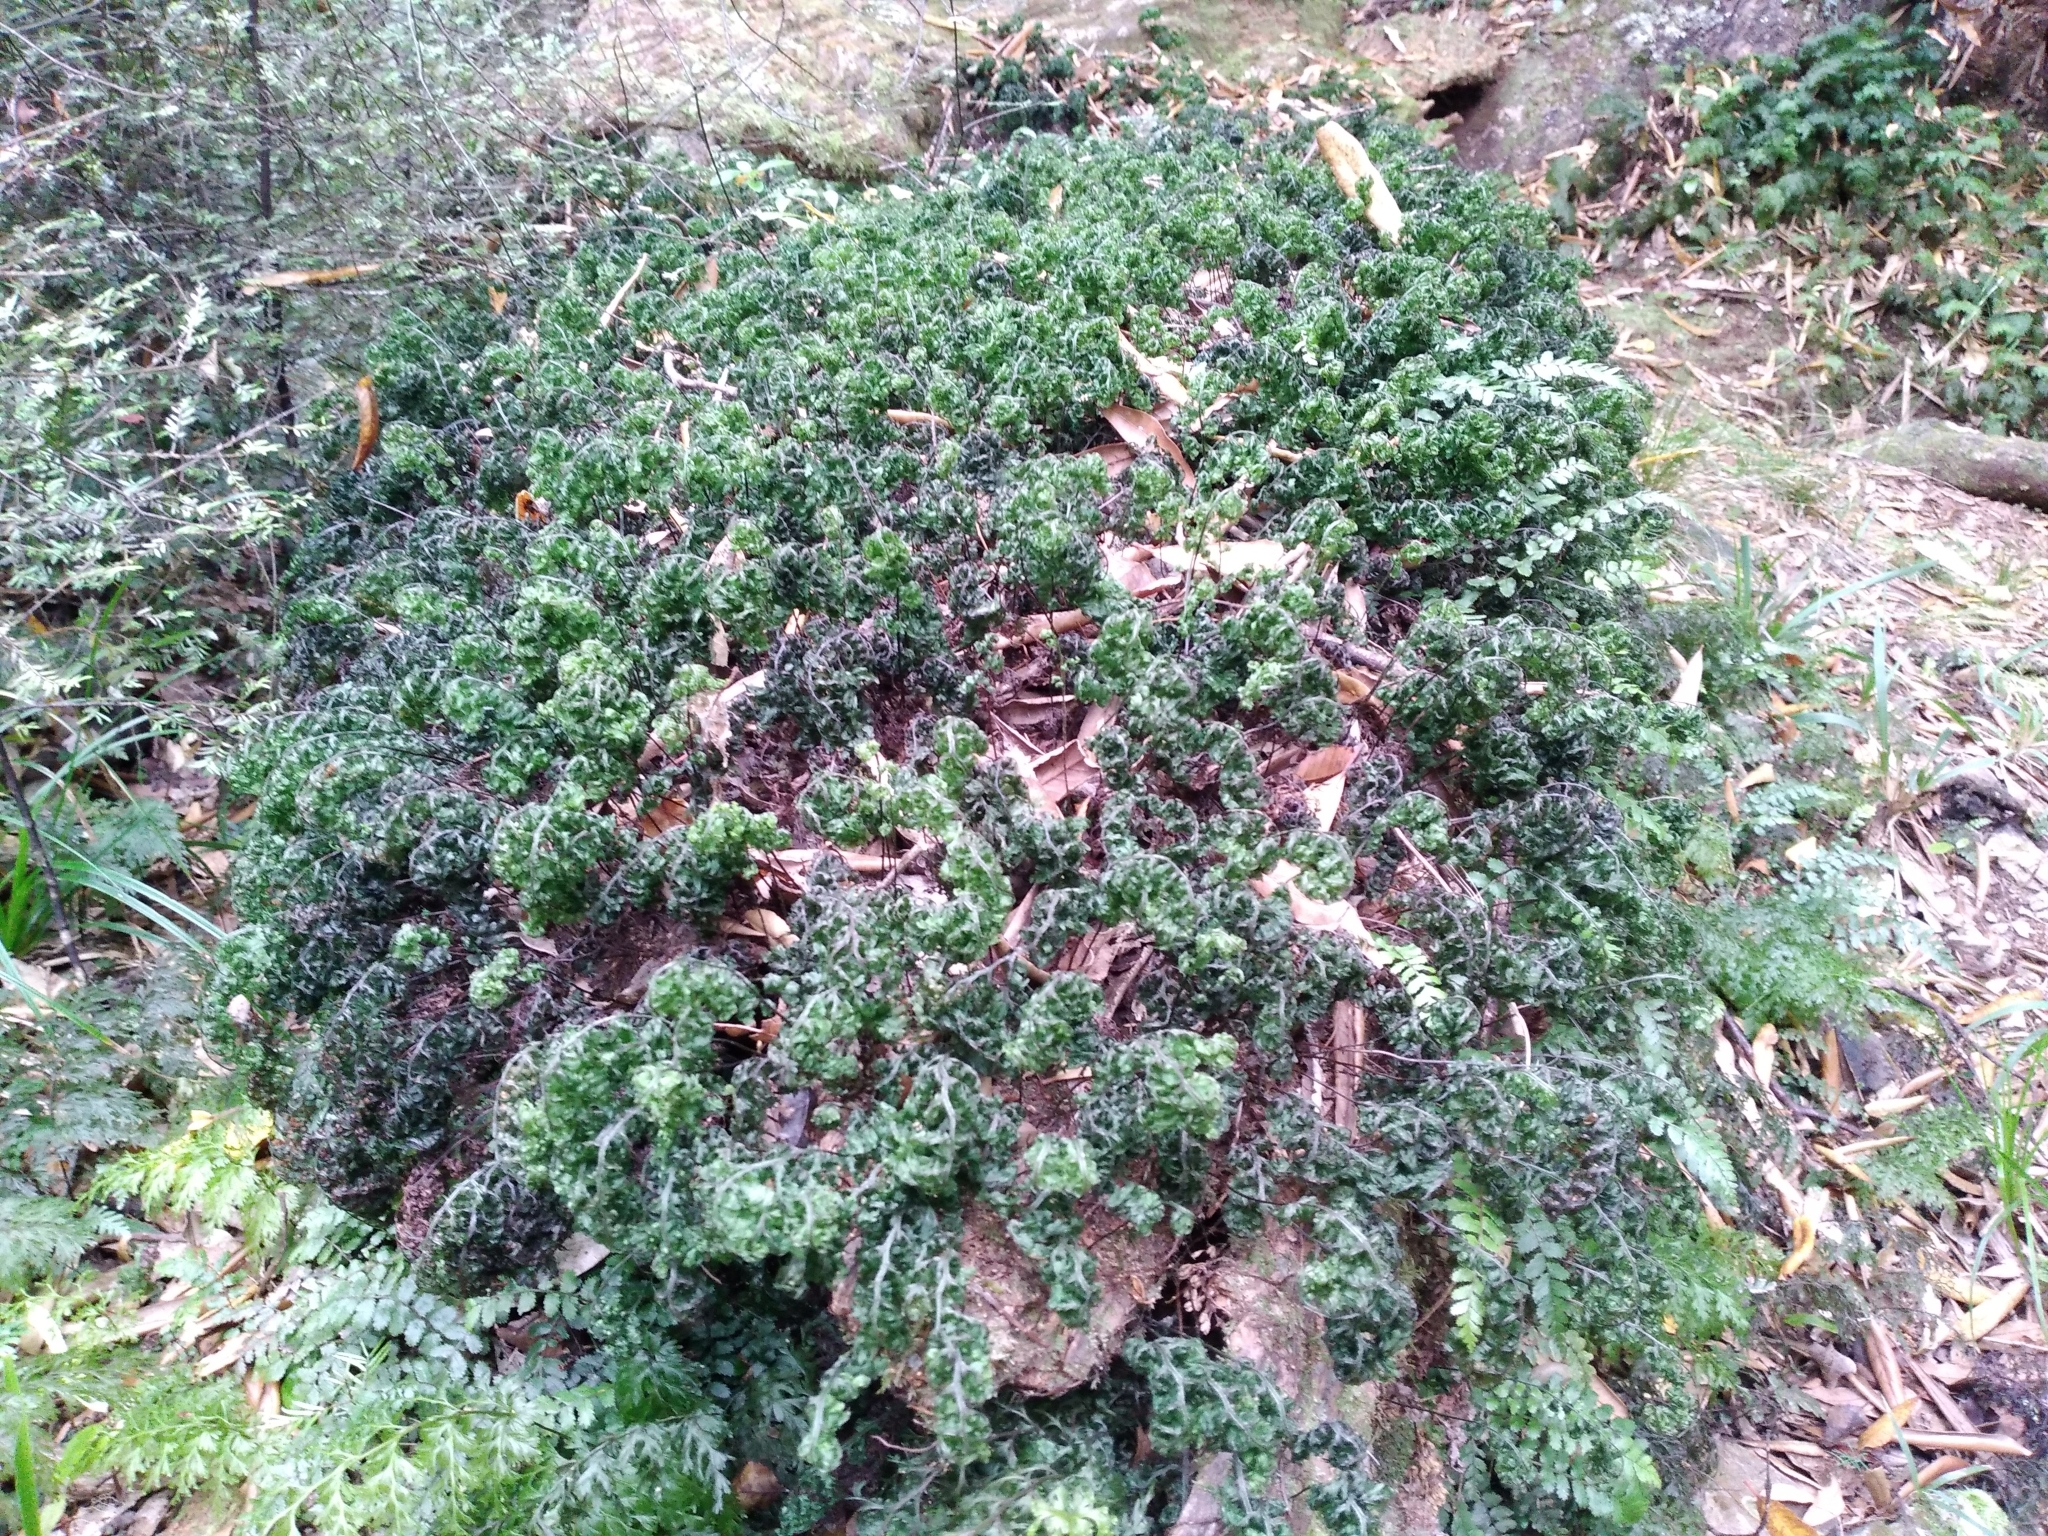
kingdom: Plantae
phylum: Tracheophyta
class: Polypodiopsida
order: Hymenophyllales
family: Hymenophyllaceae
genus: Hymenophyllum
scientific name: Hymenophyllum sanguinolentum
